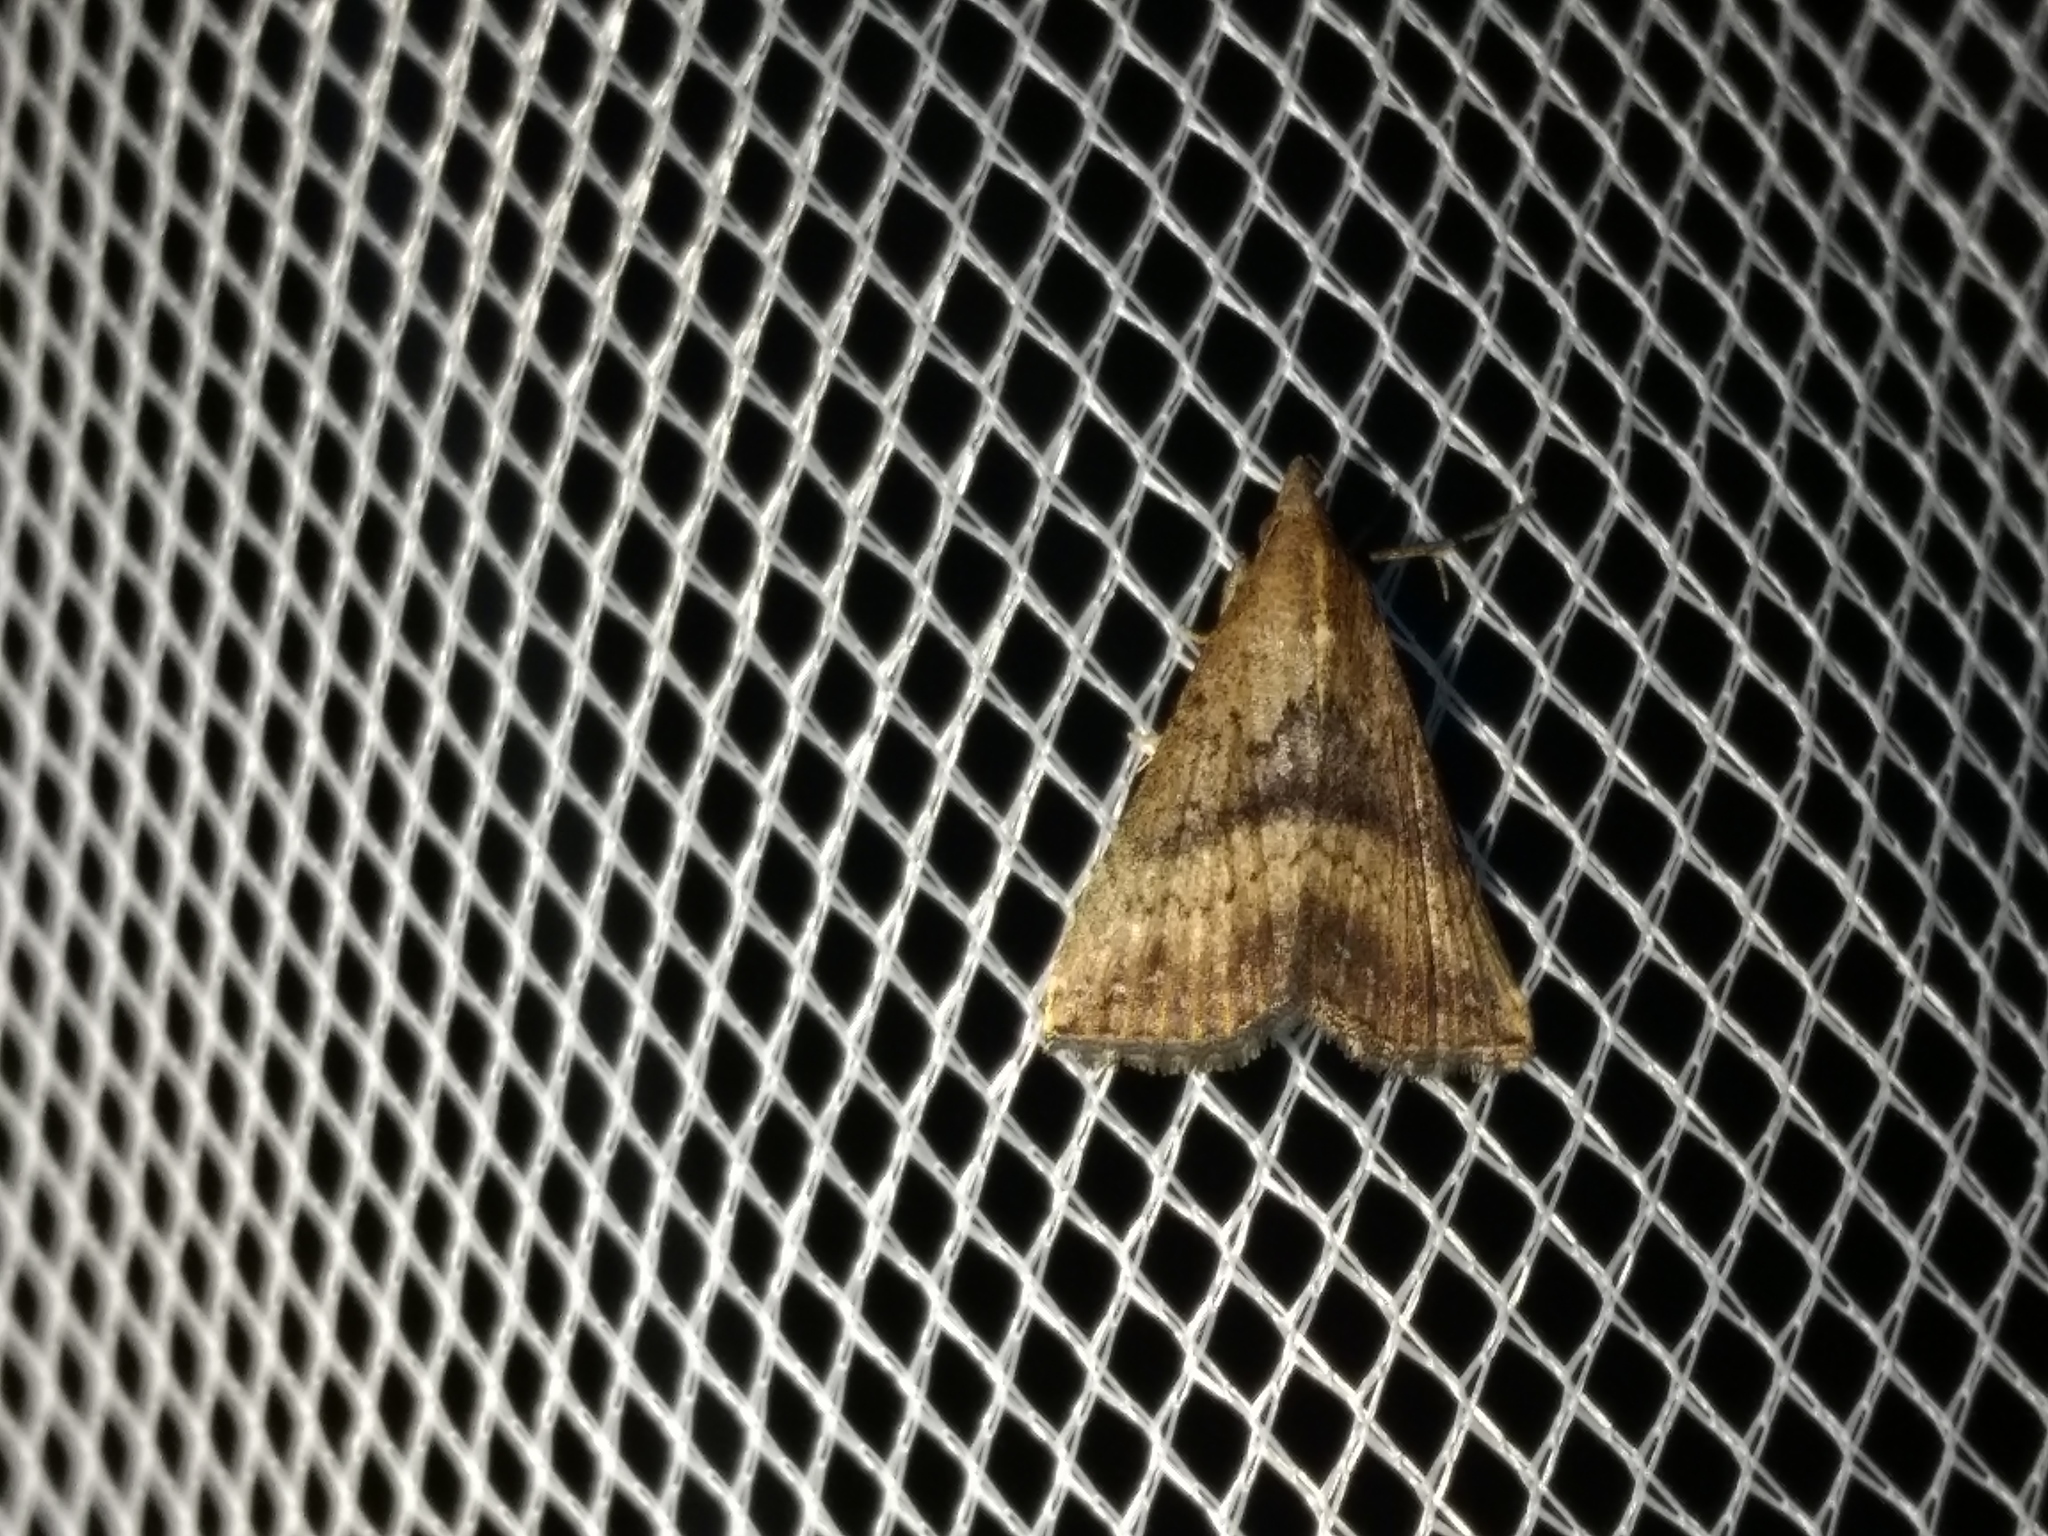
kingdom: Animalia
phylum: Arthropoda
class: Insecta
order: Lepidoptera
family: Erebidae
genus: Hypena
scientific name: Hypena umbrifera
